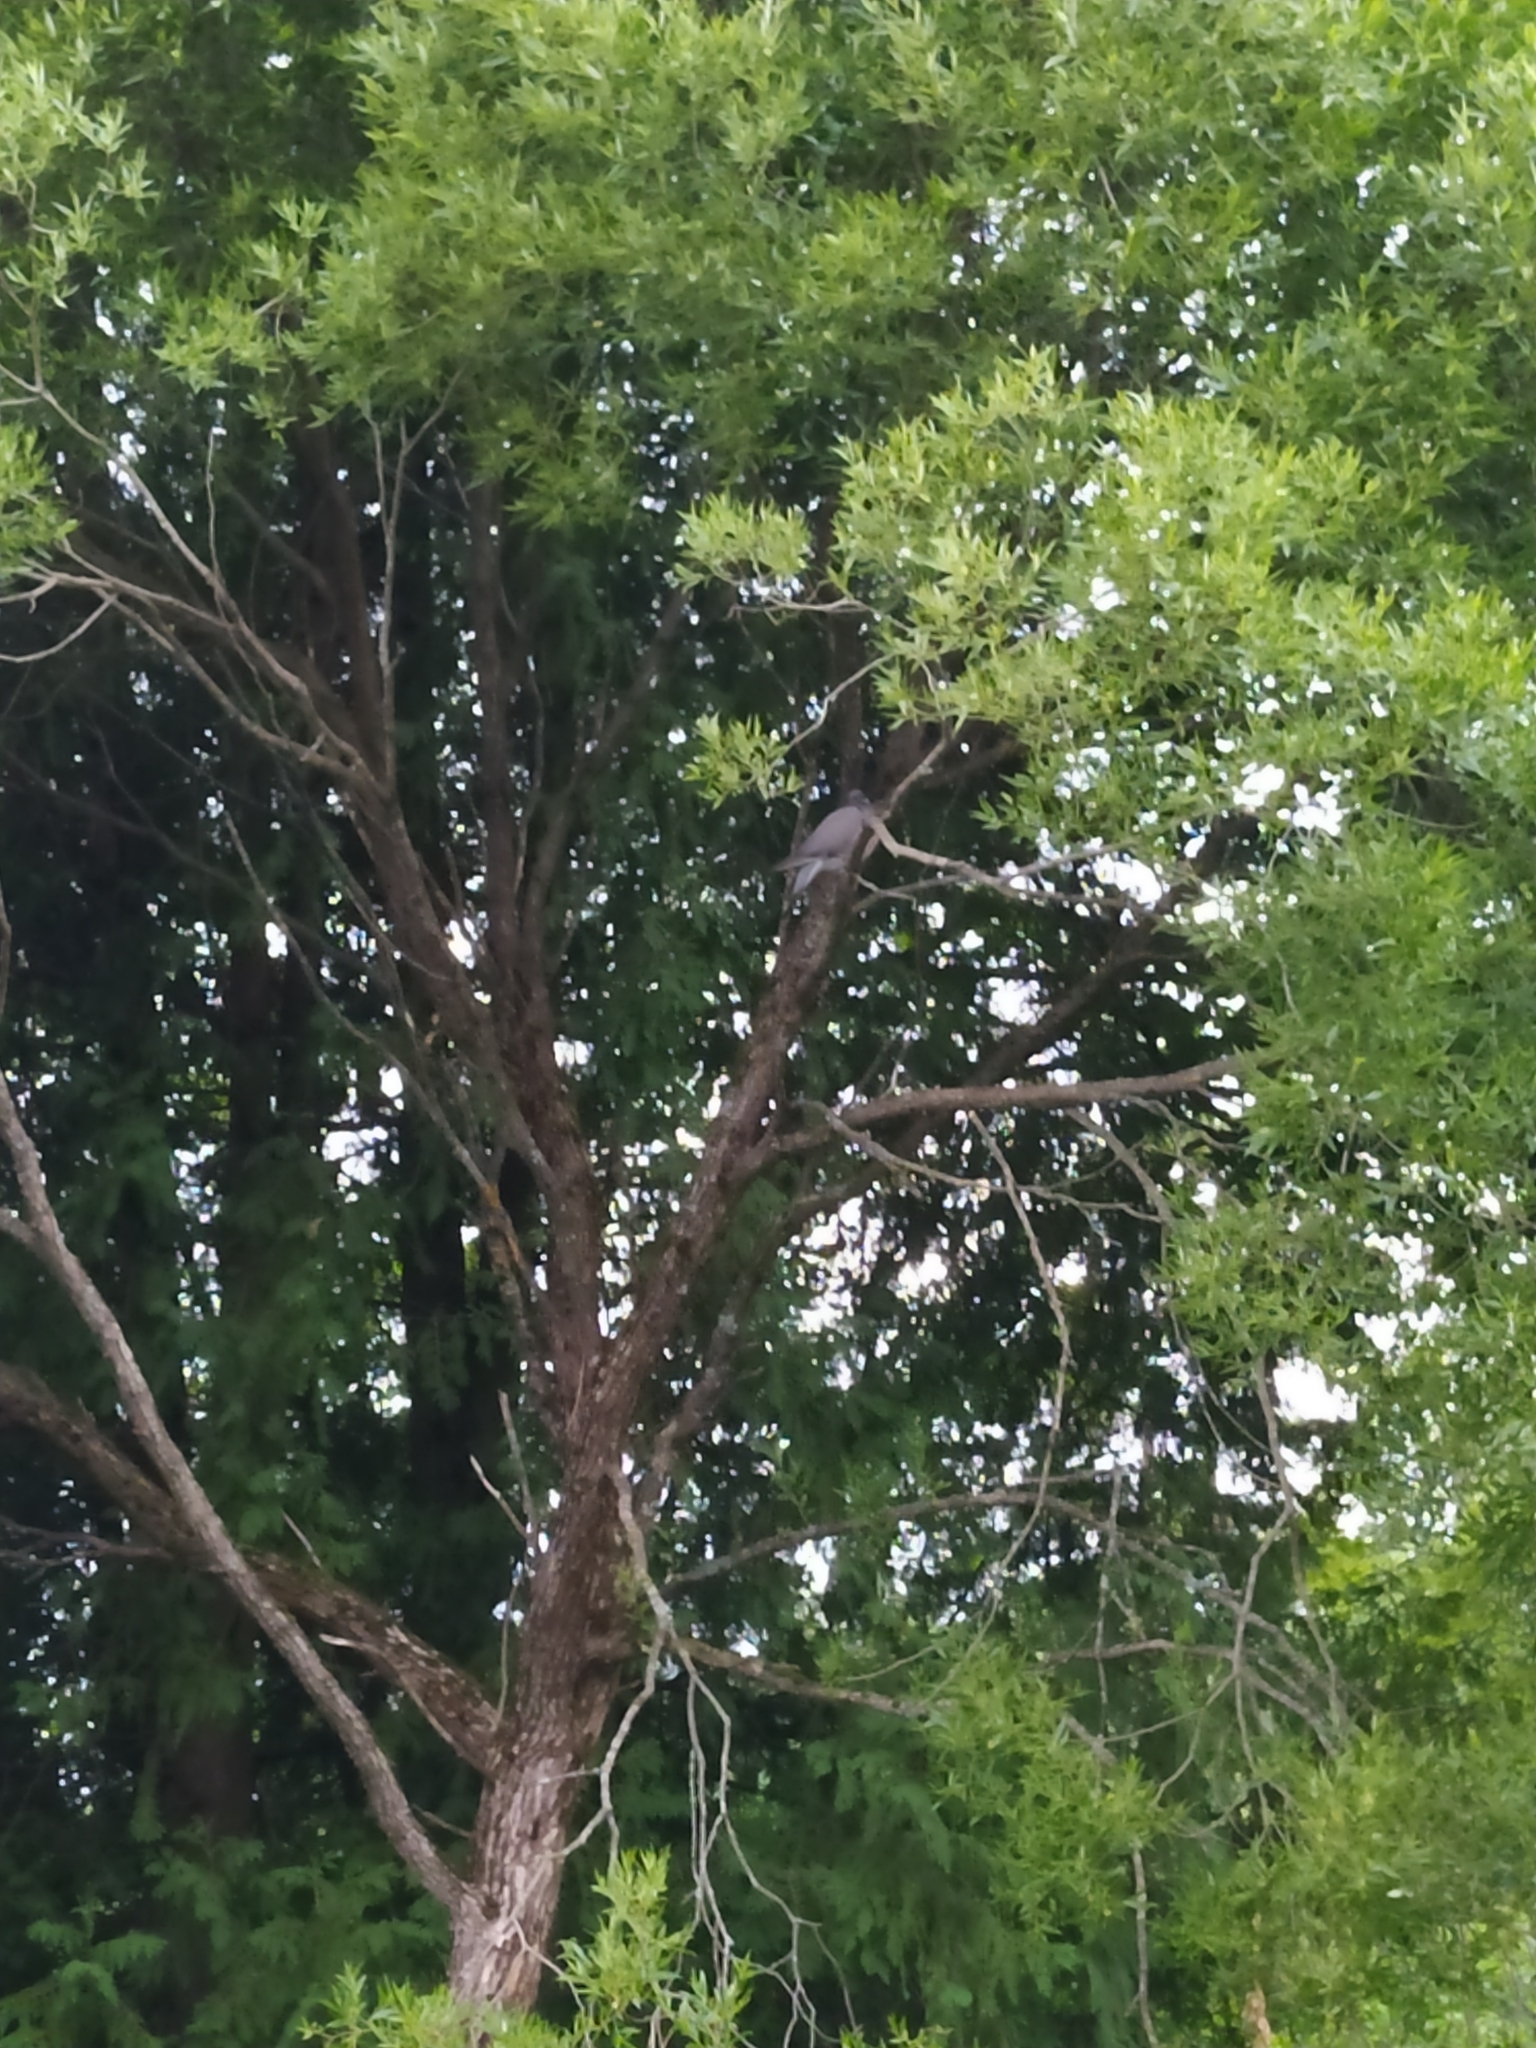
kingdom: Animalia
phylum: Chordata
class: Aves
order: Columbiformes
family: Columbidae
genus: Columba
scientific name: Columba palumbus
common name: Common wood pigeon
